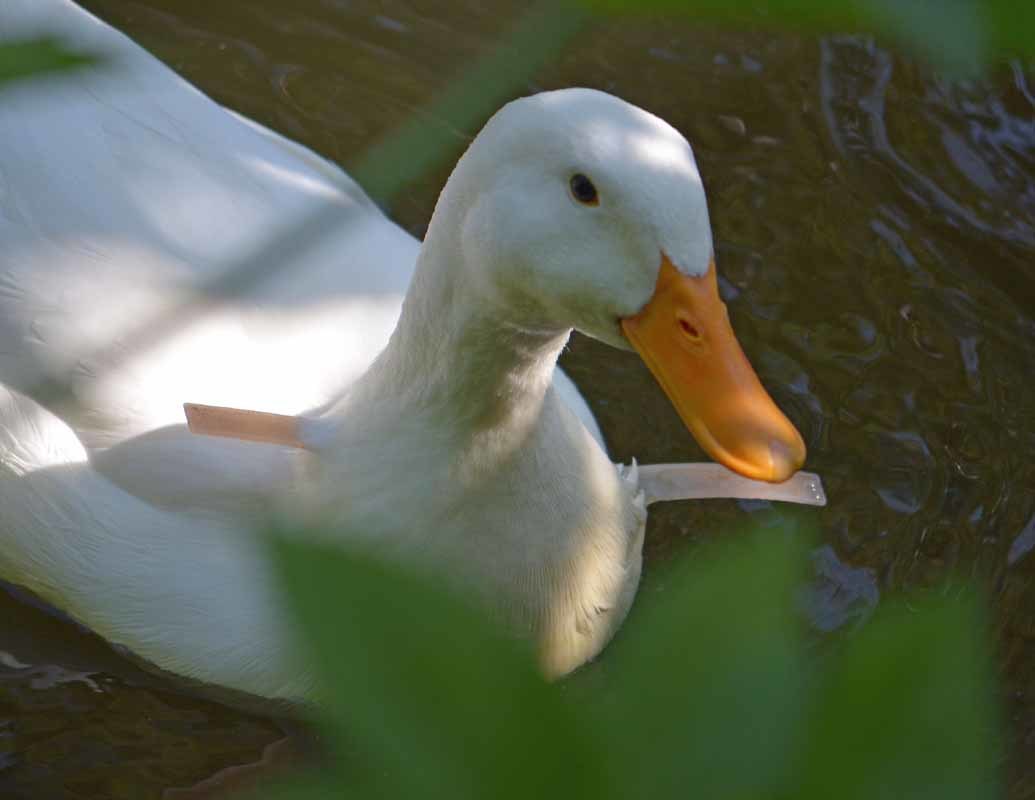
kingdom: Animalia
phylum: Chordata
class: Aves
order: Anseriformes
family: Anatidae
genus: Anas
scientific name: Anas platyrhynchos
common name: Mallard
